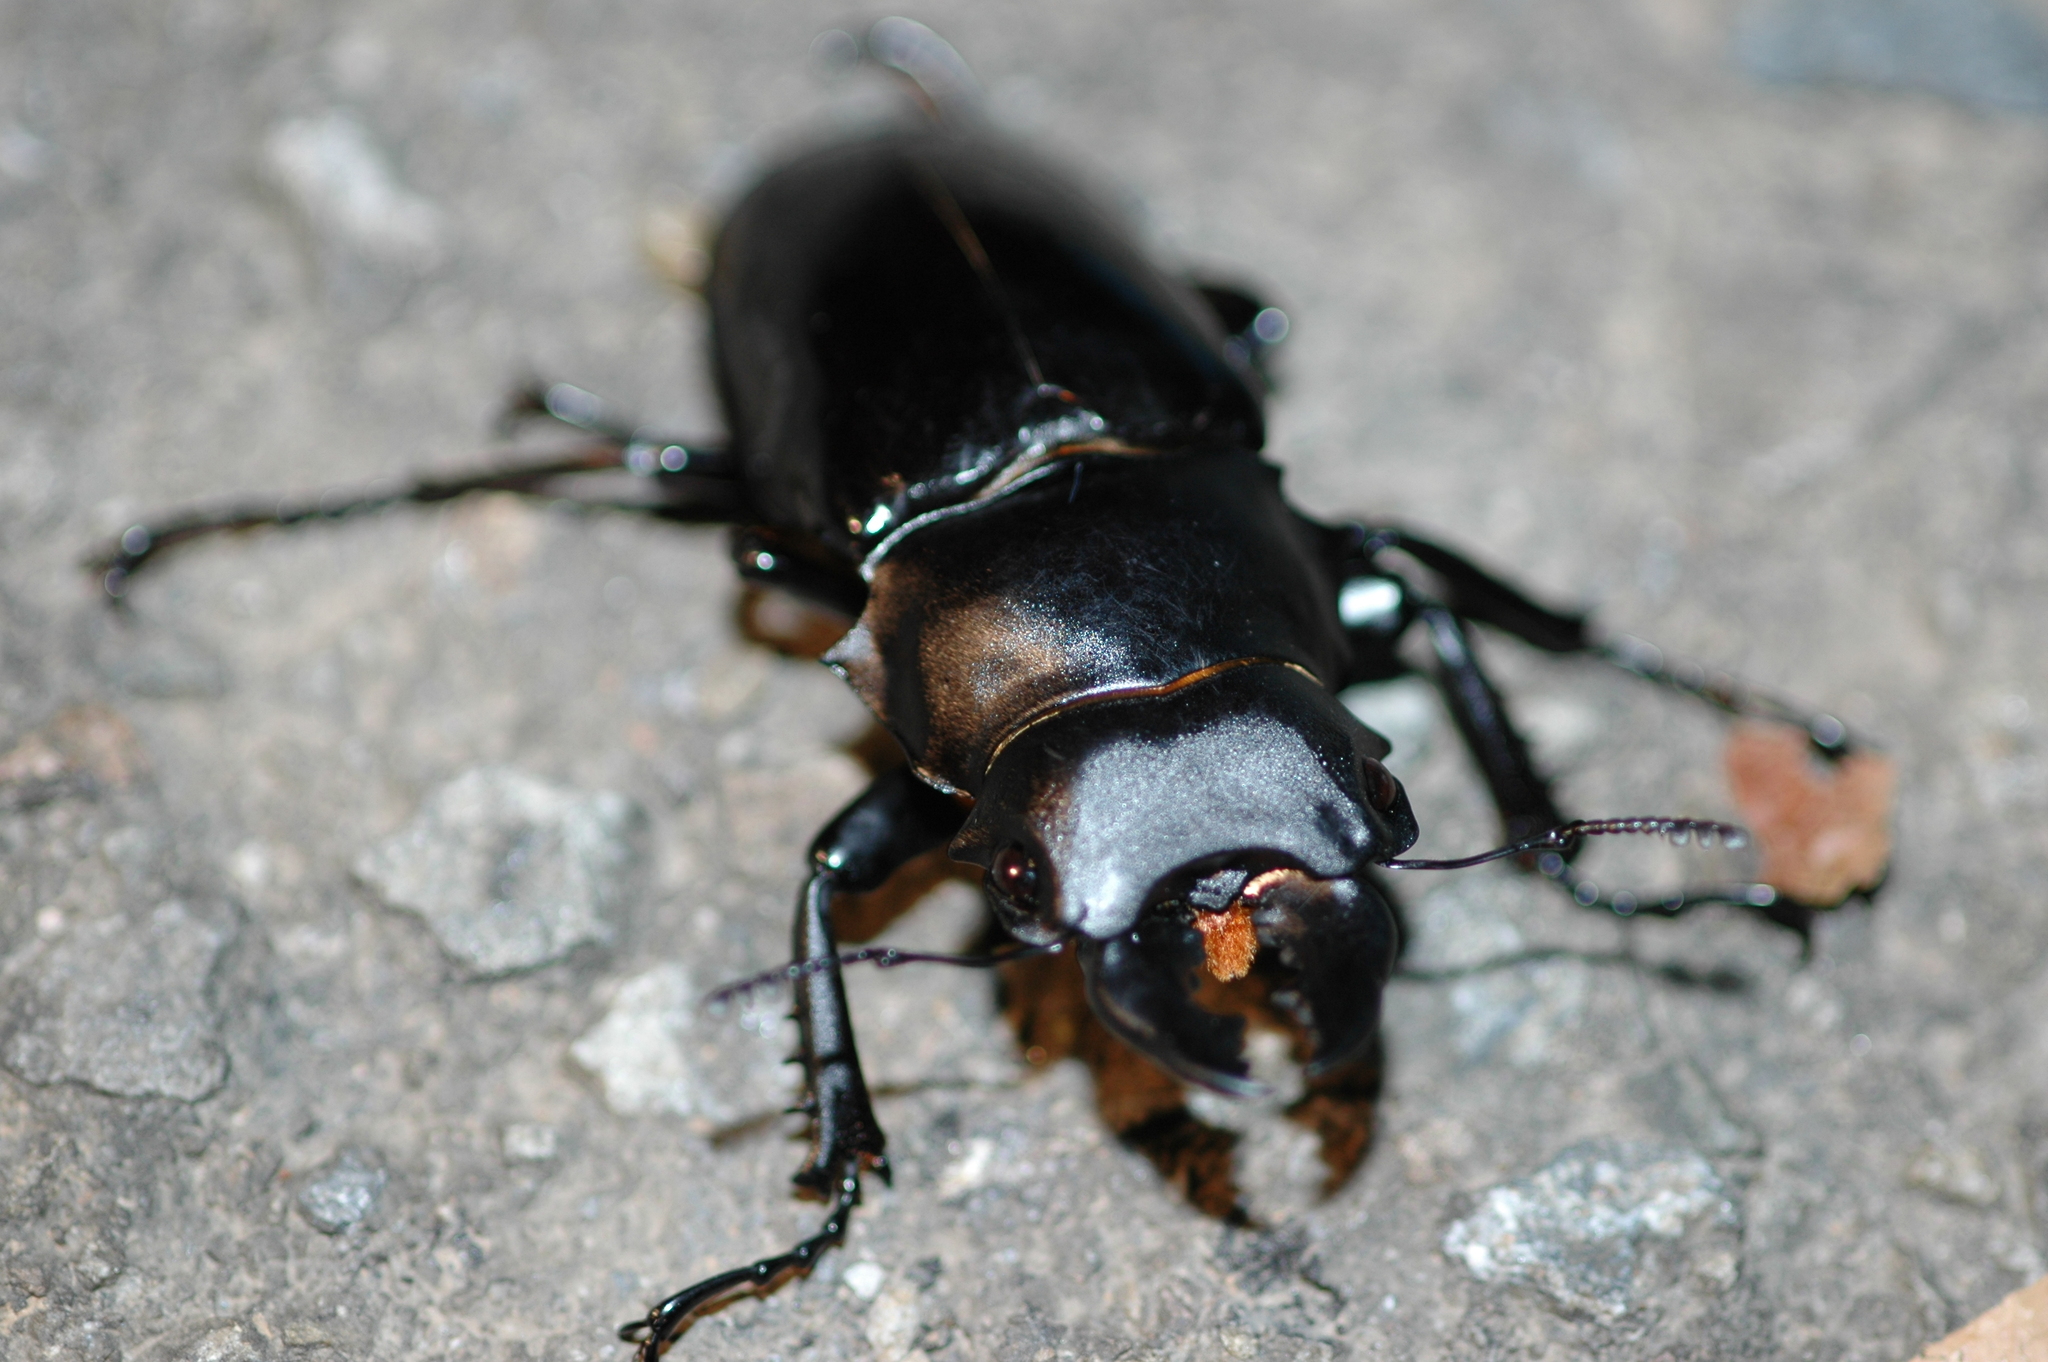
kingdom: Animalia
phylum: Arthropoda
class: Insecta
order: Coleoptera
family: Lucanidae
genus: Odontolabis
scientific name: Odontolabis siva
